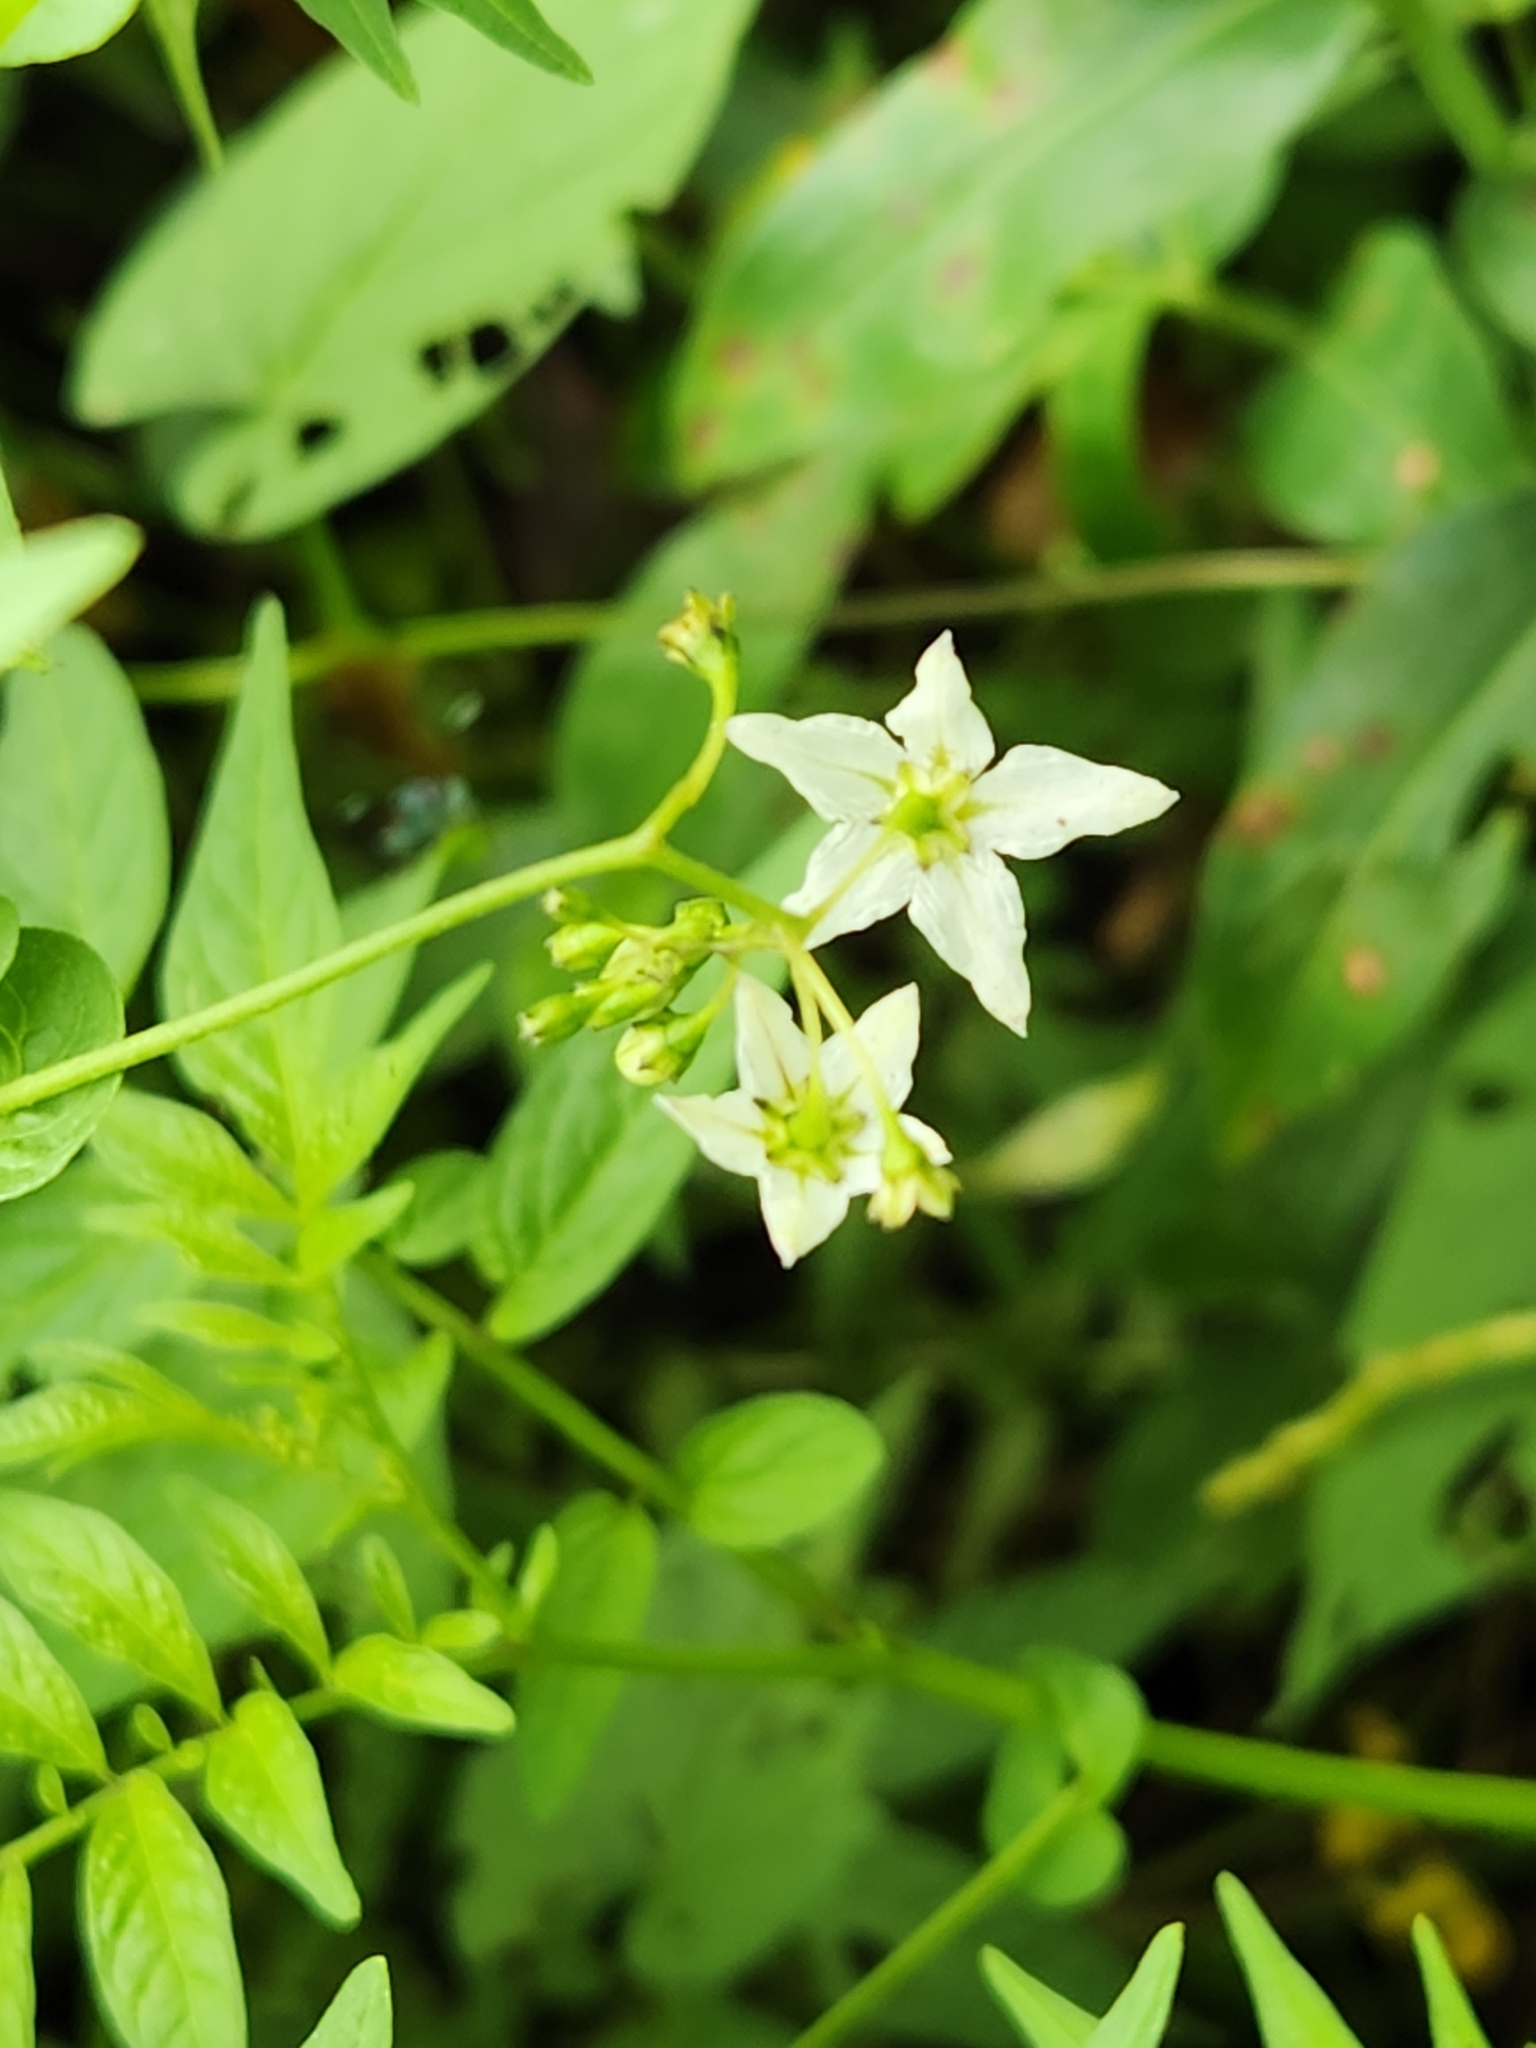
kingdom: Plantae
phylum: Tracheophyta
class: Magnoliopsida
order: Solanales
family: Solanaceae
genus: Solanum
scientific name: Solanum canense
